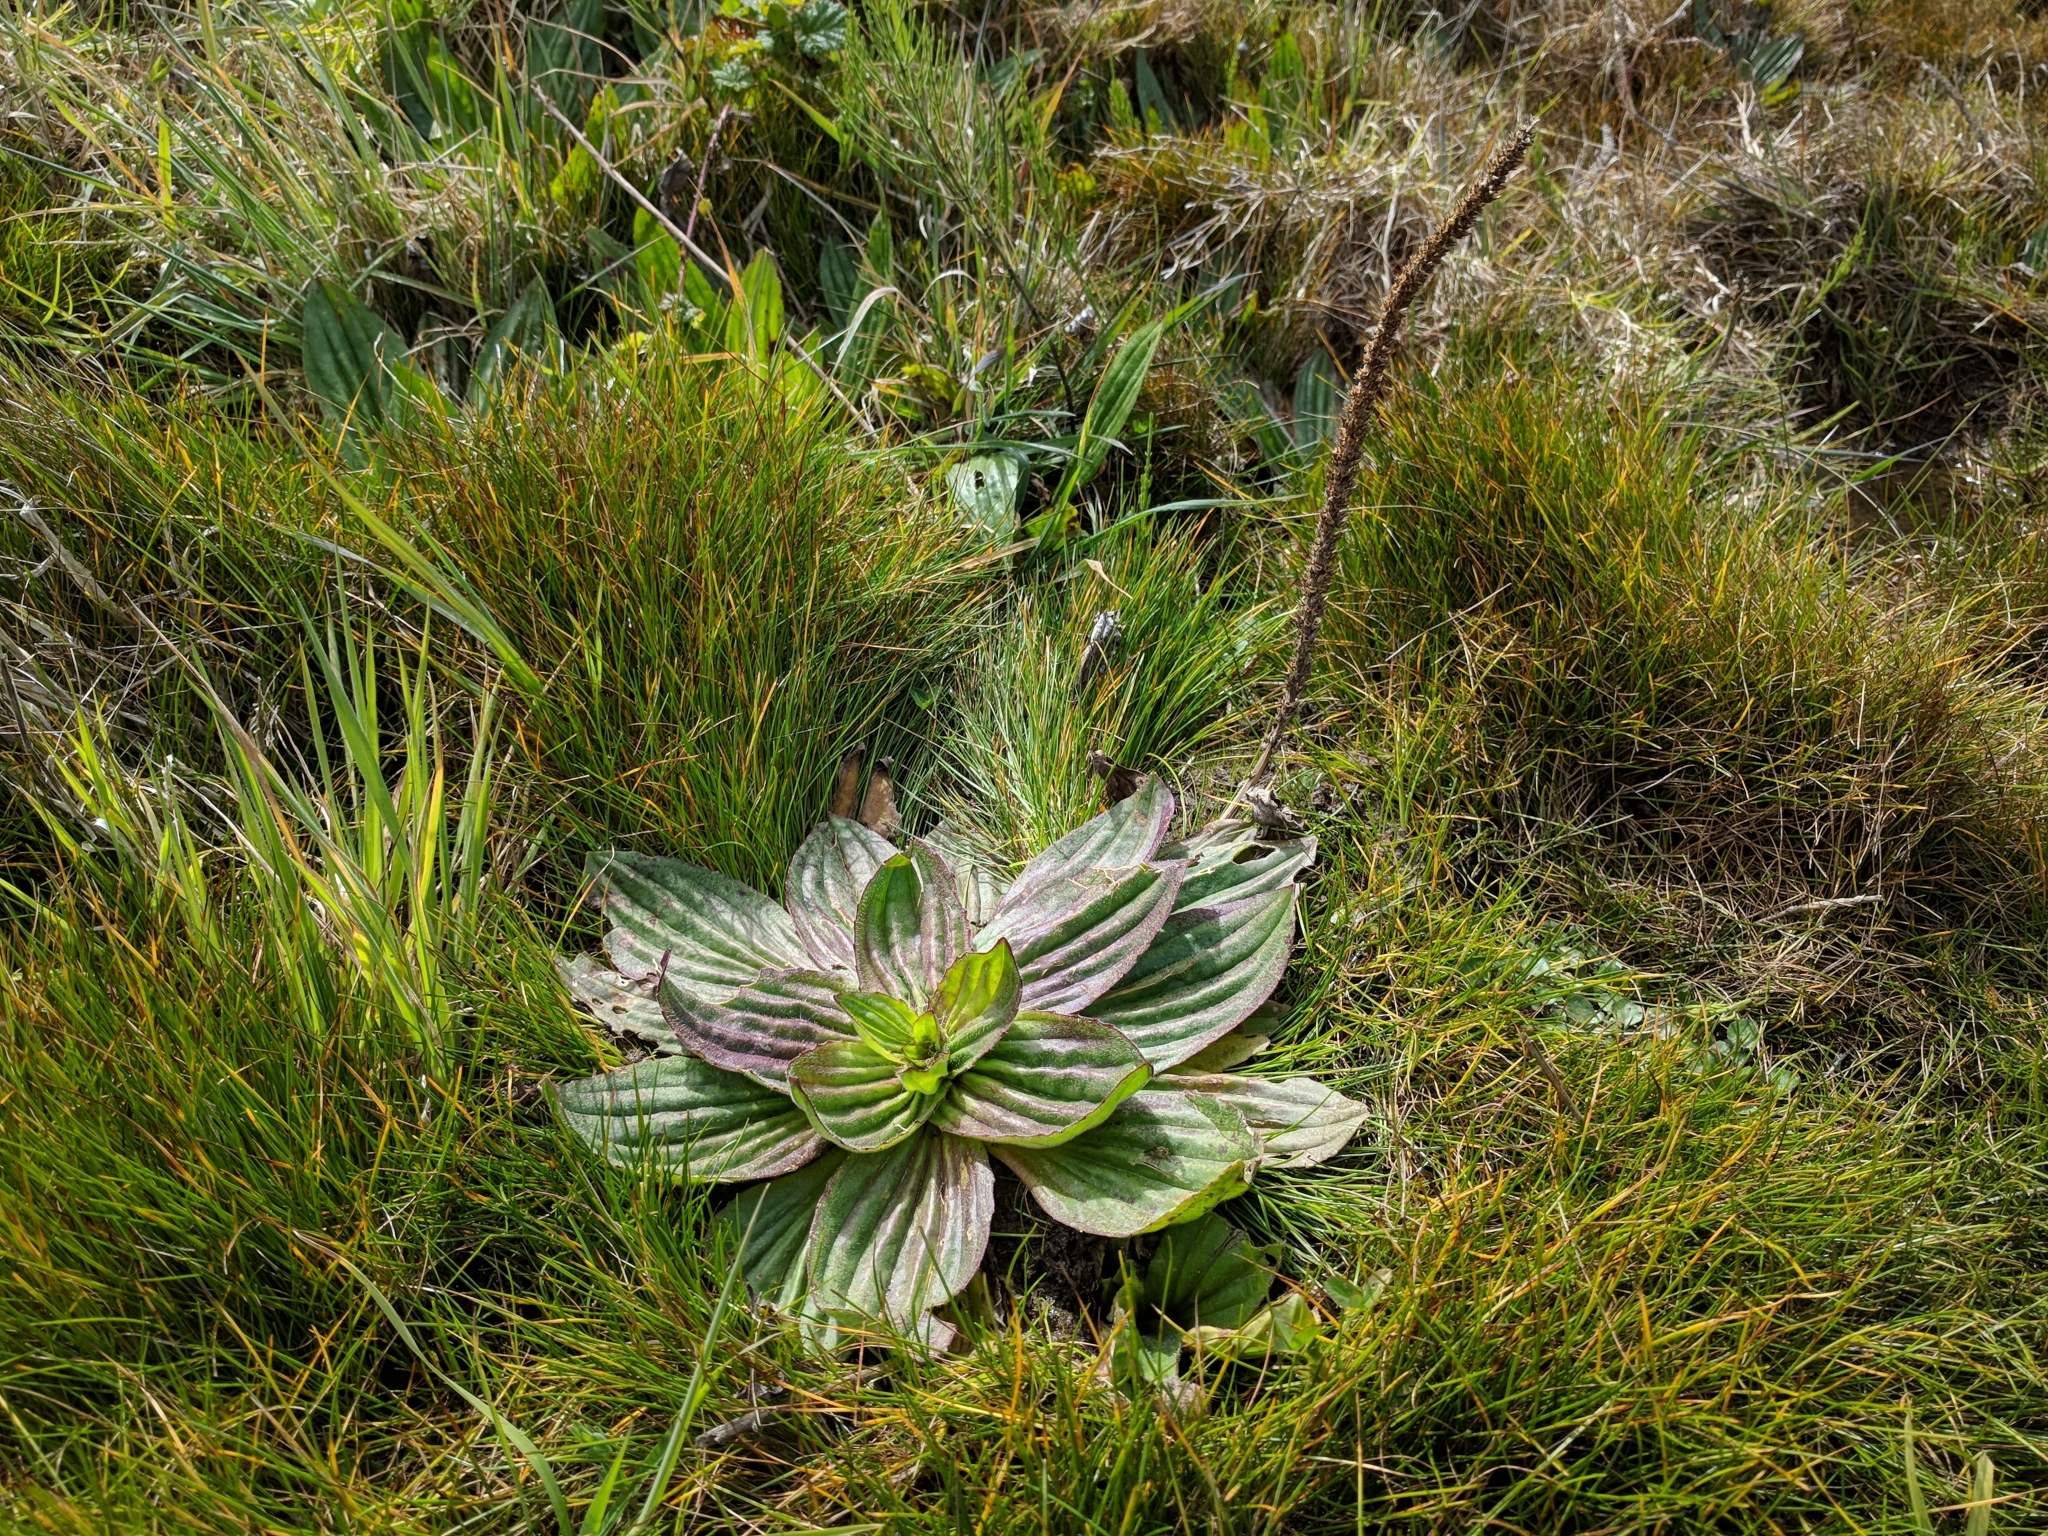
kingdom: Plantae
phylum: Tracheophyta
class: Magnoliopsida
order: Lamiales
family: Plantaginaceae
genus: Plantago
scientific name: Plantago subnuda
